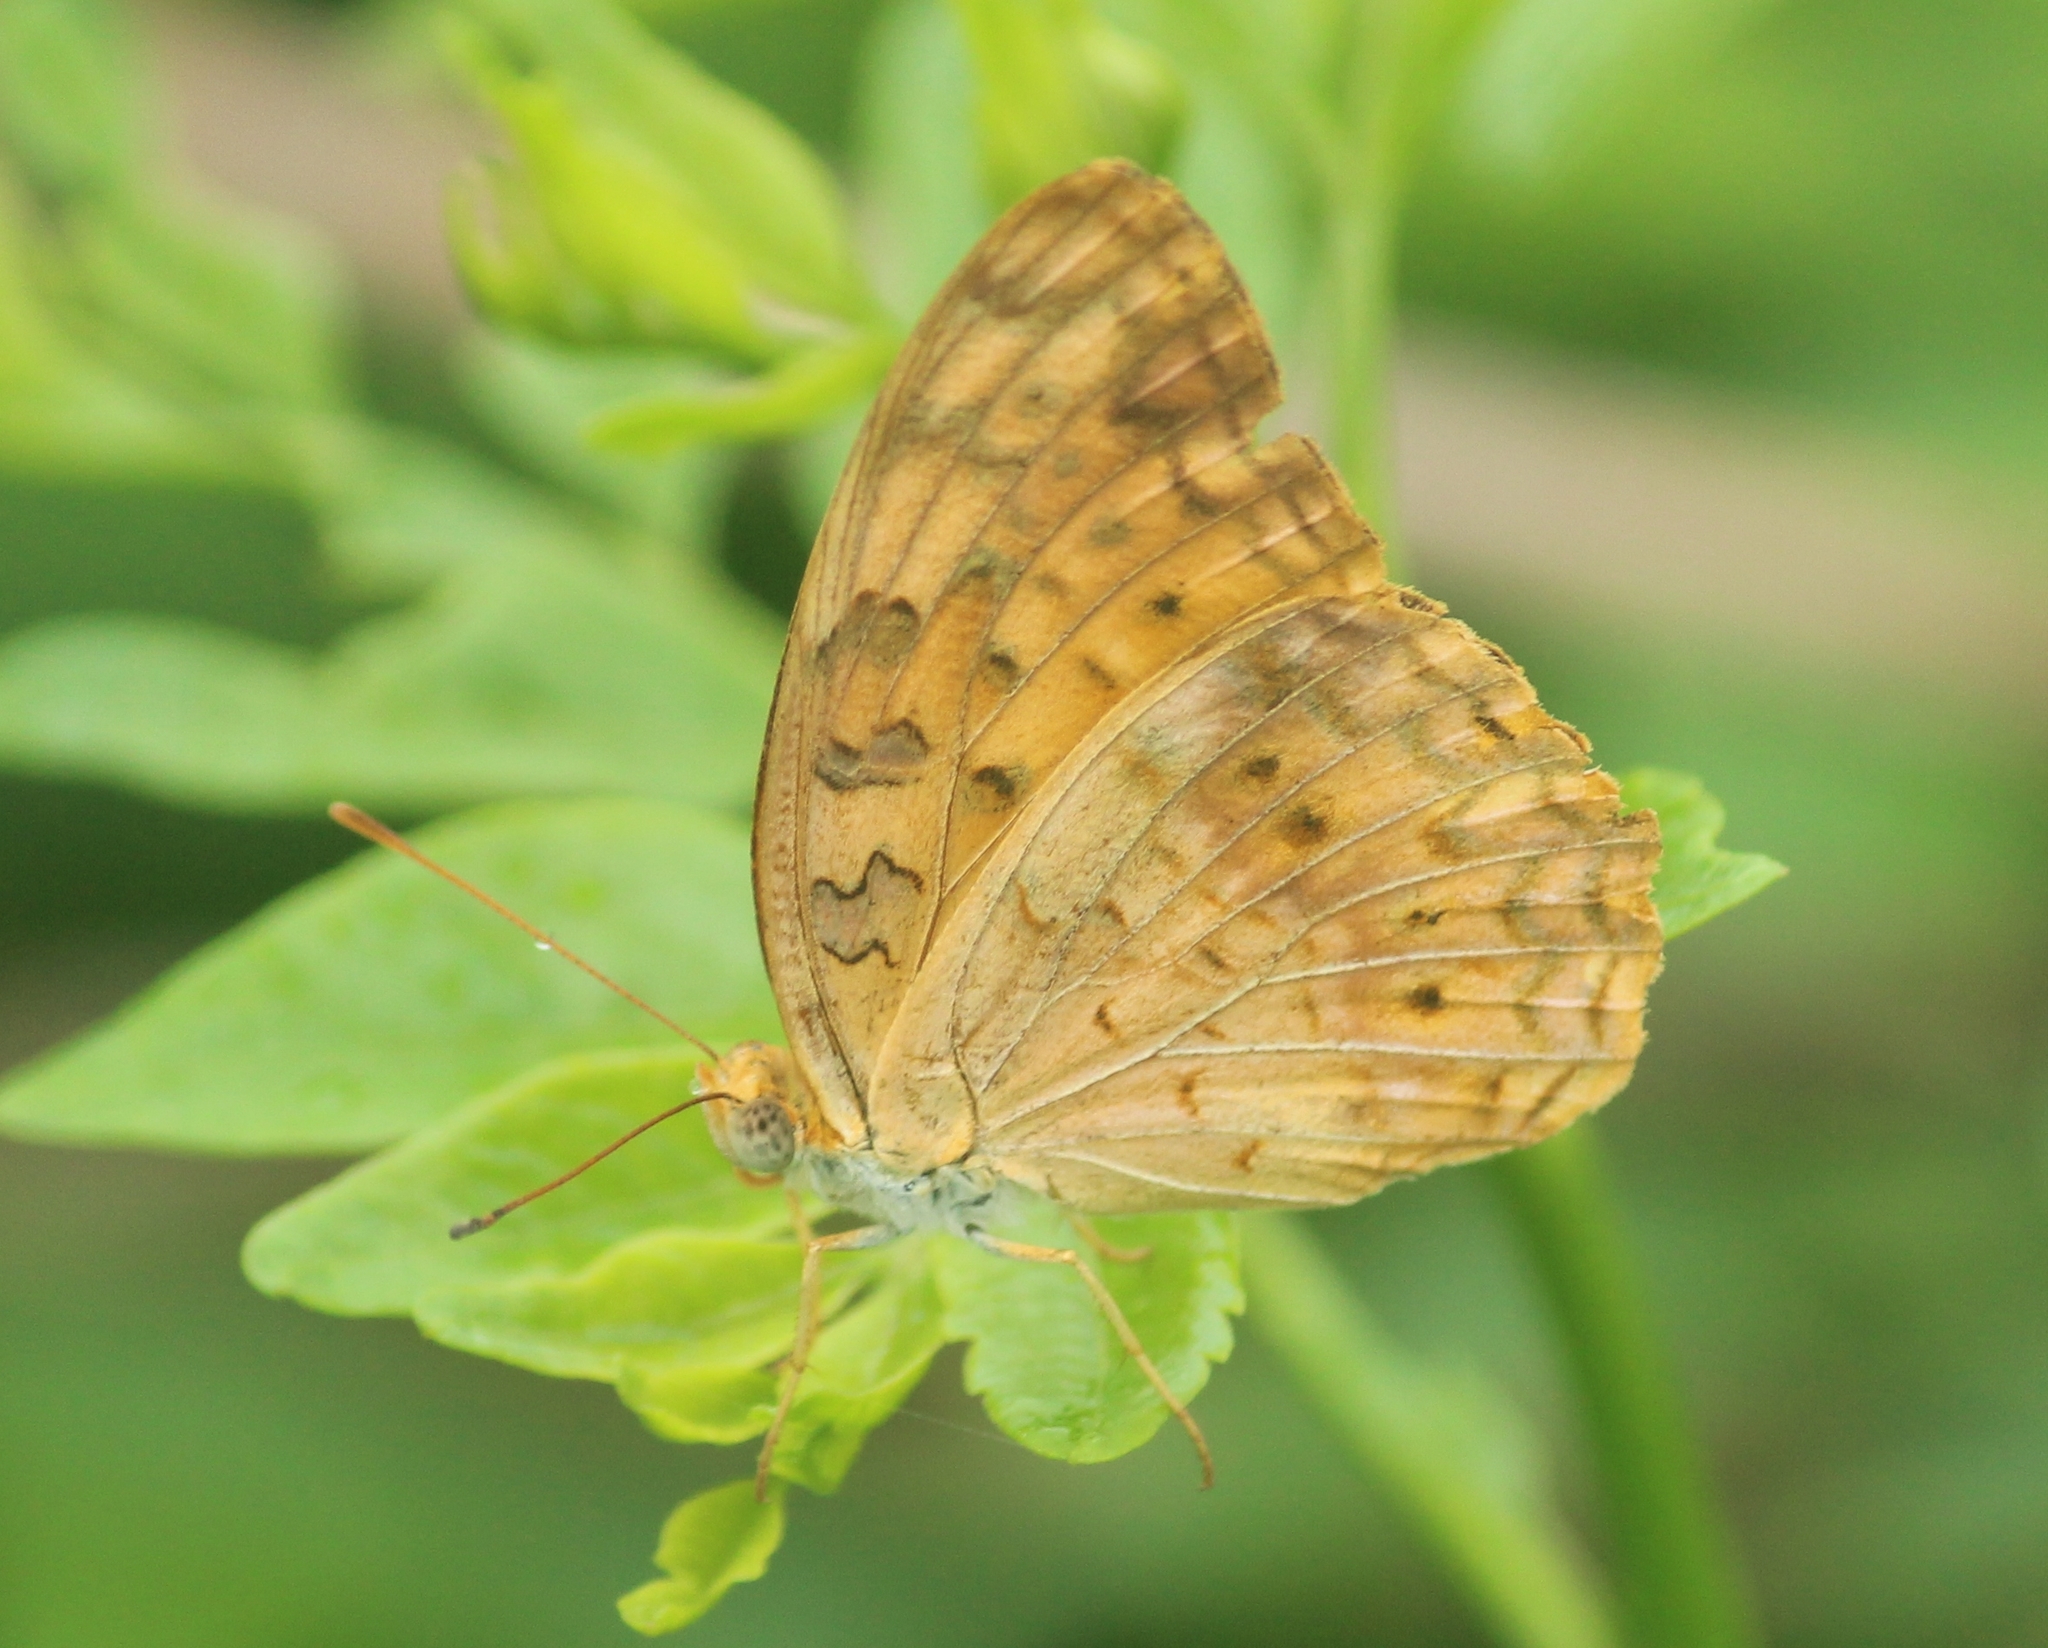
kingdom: Animalia
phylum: Arthropoda
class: Insecta
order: Lepidoptera
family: Nymphalidae
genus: Phalanta
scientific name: Phalanta phalantha
